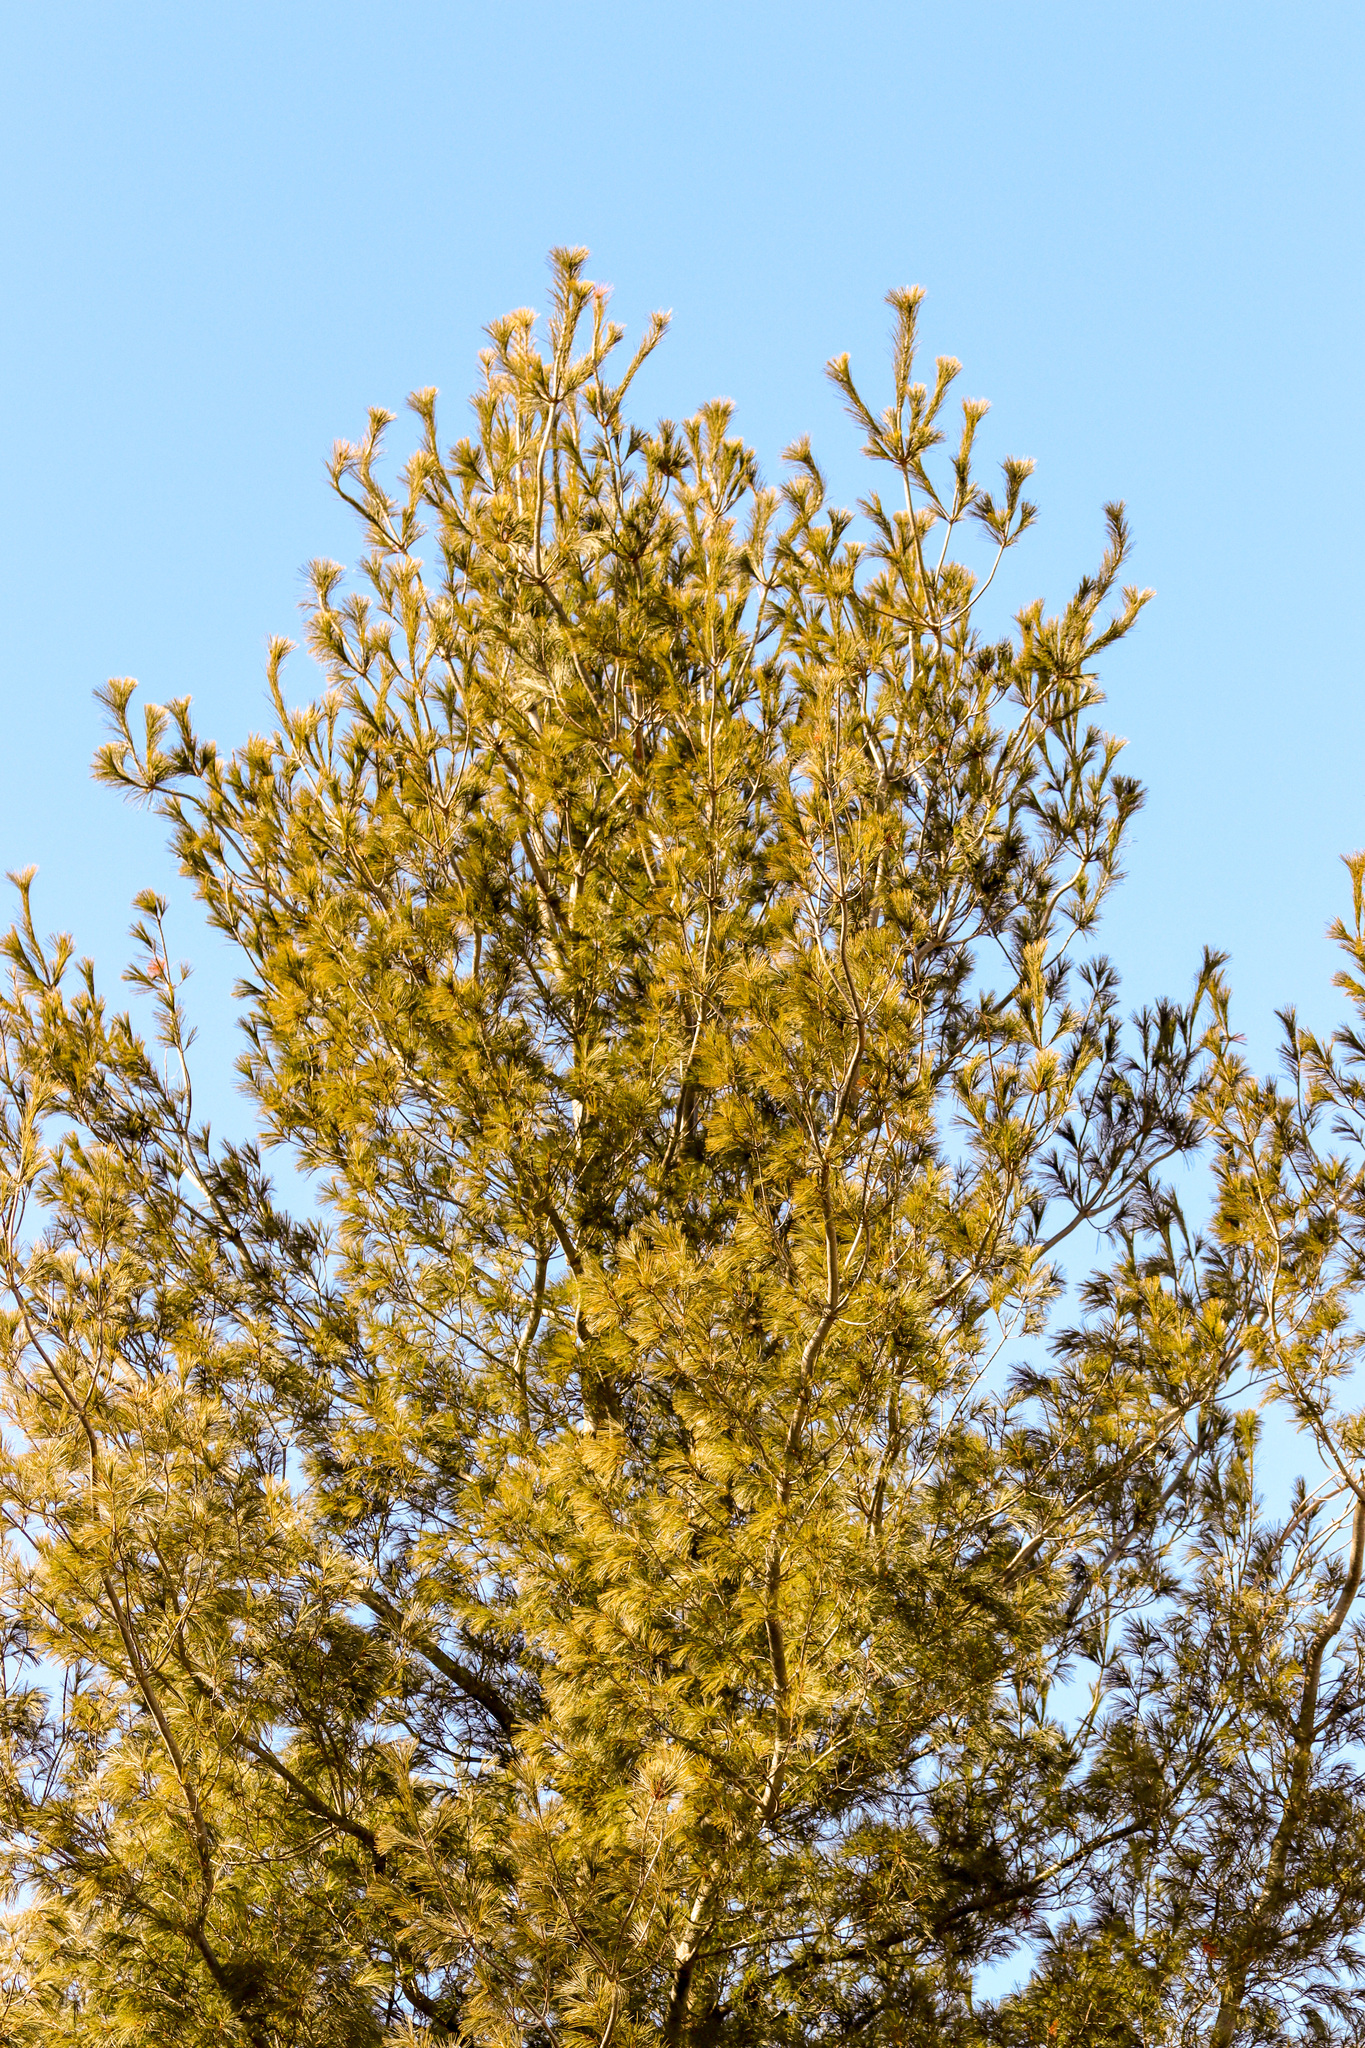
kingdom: Plantae
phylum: Tracheophyta
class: Pinopsida
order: Pinales
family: Pinaceae
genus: Pinus
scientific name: Pinus strobus
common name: Weymouth pine
